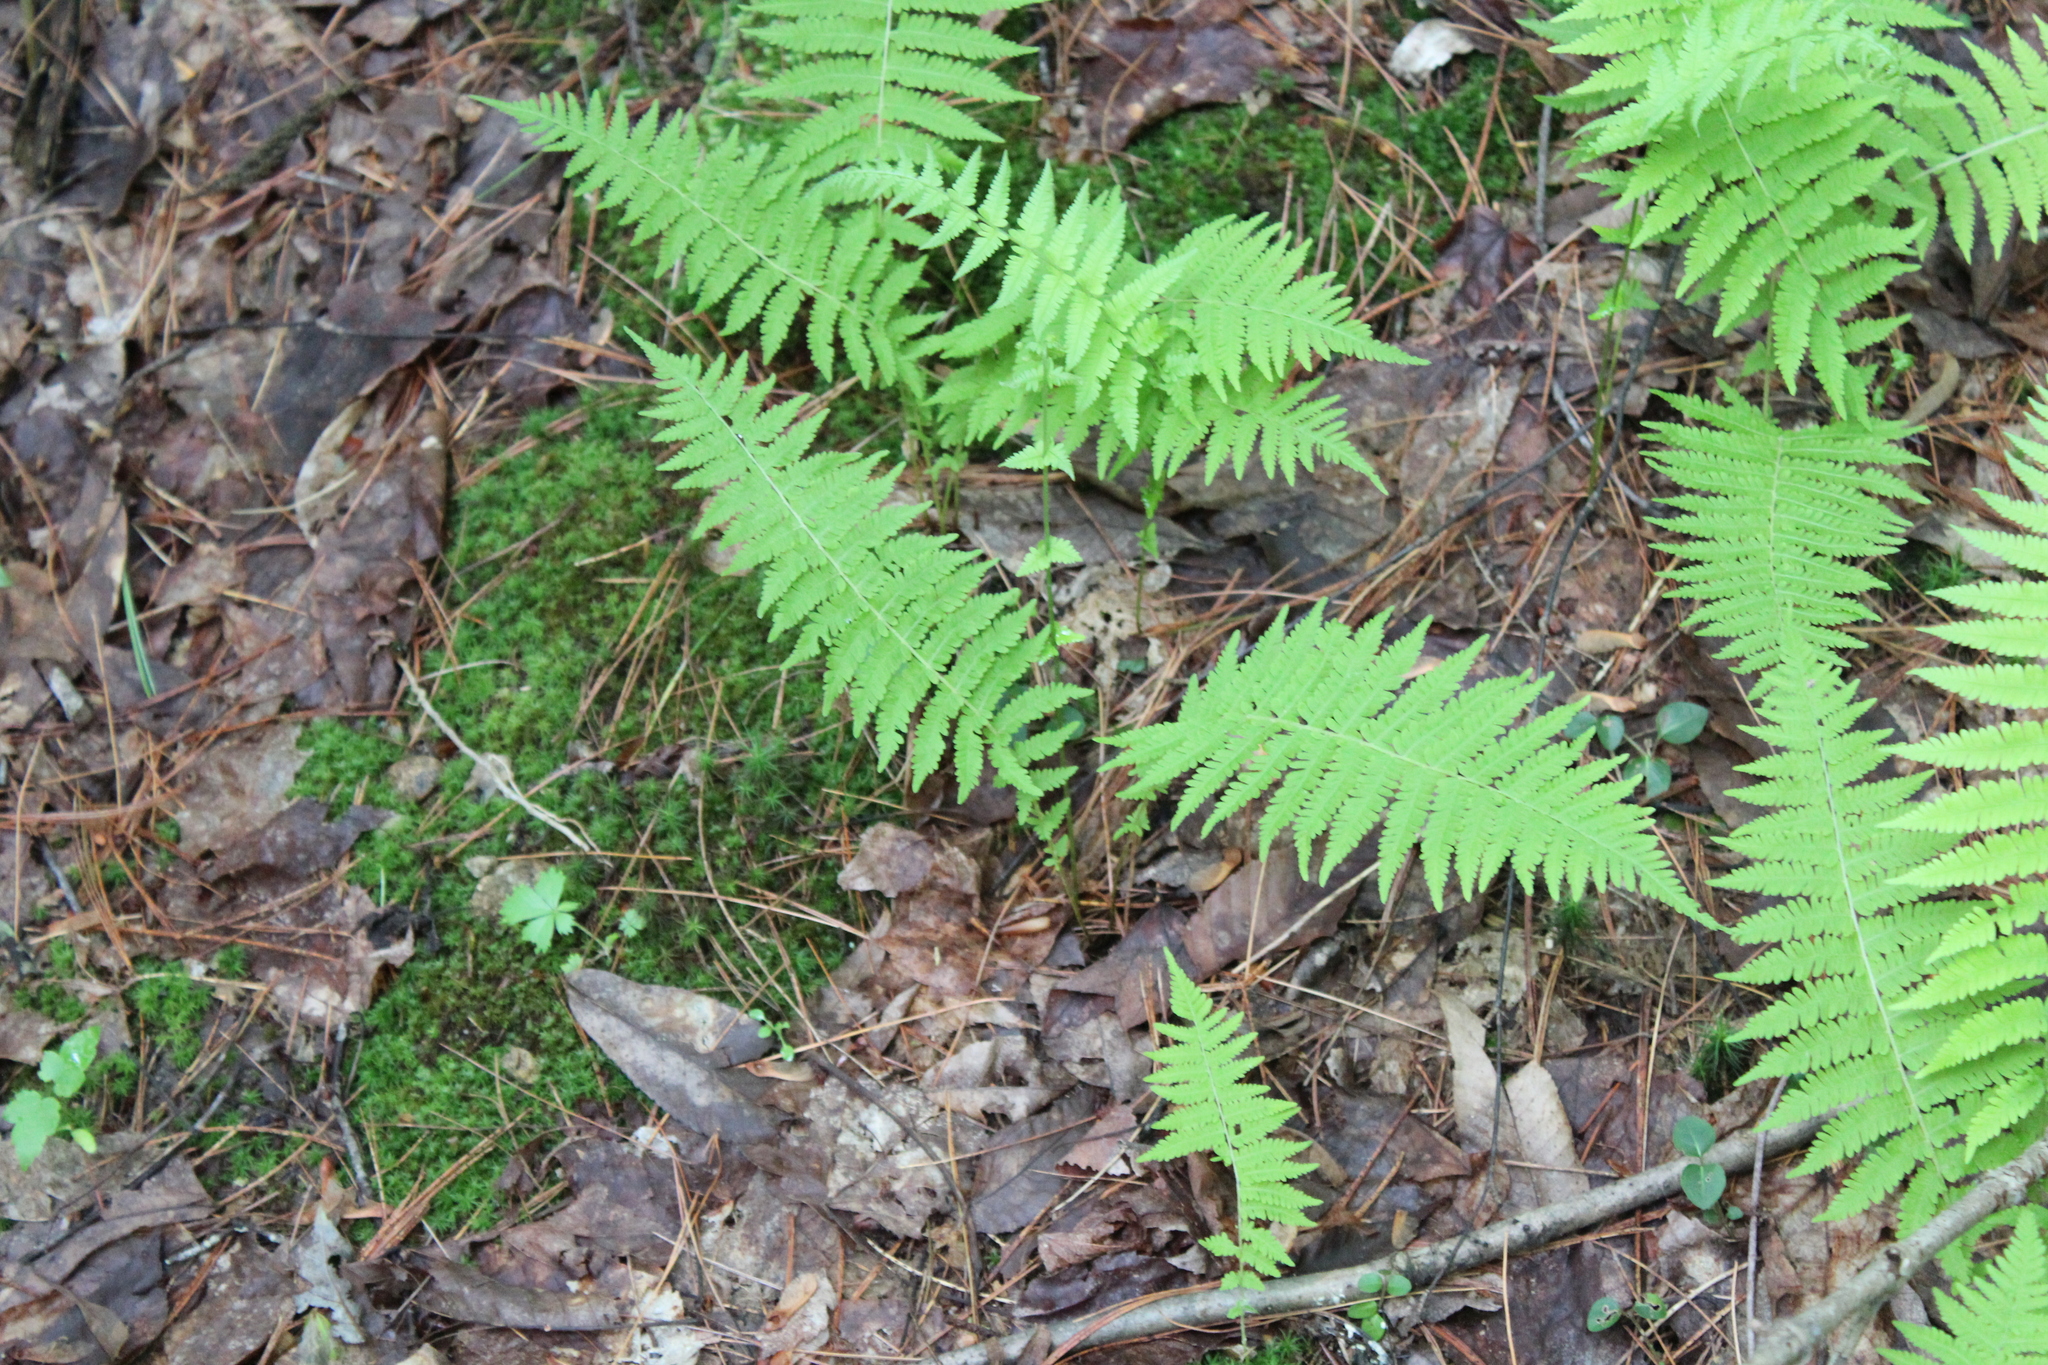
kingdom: Plantae
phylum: Tracheophyta
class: Polypodiopsida
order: Polypodiales
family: Thelypteridaceae
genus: Amauropelta
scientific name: Amauropelta noveboracensis
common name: New york fern
